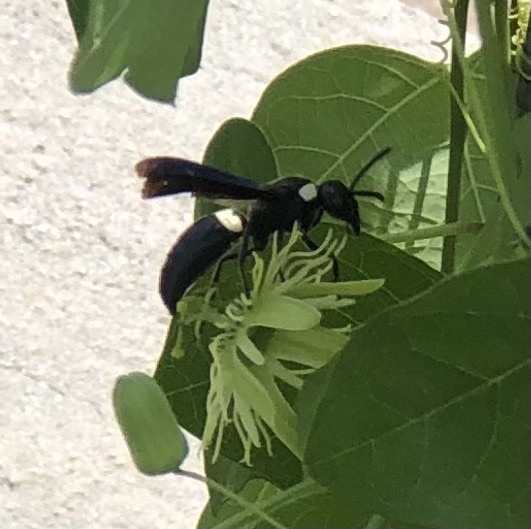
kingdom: Animalia
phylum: Arthropoda
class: Insecta
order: Hymenoptera
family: Eumenidae
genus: Monobia
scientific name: Monobia quadridens
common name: Four-toothed mason wasp
